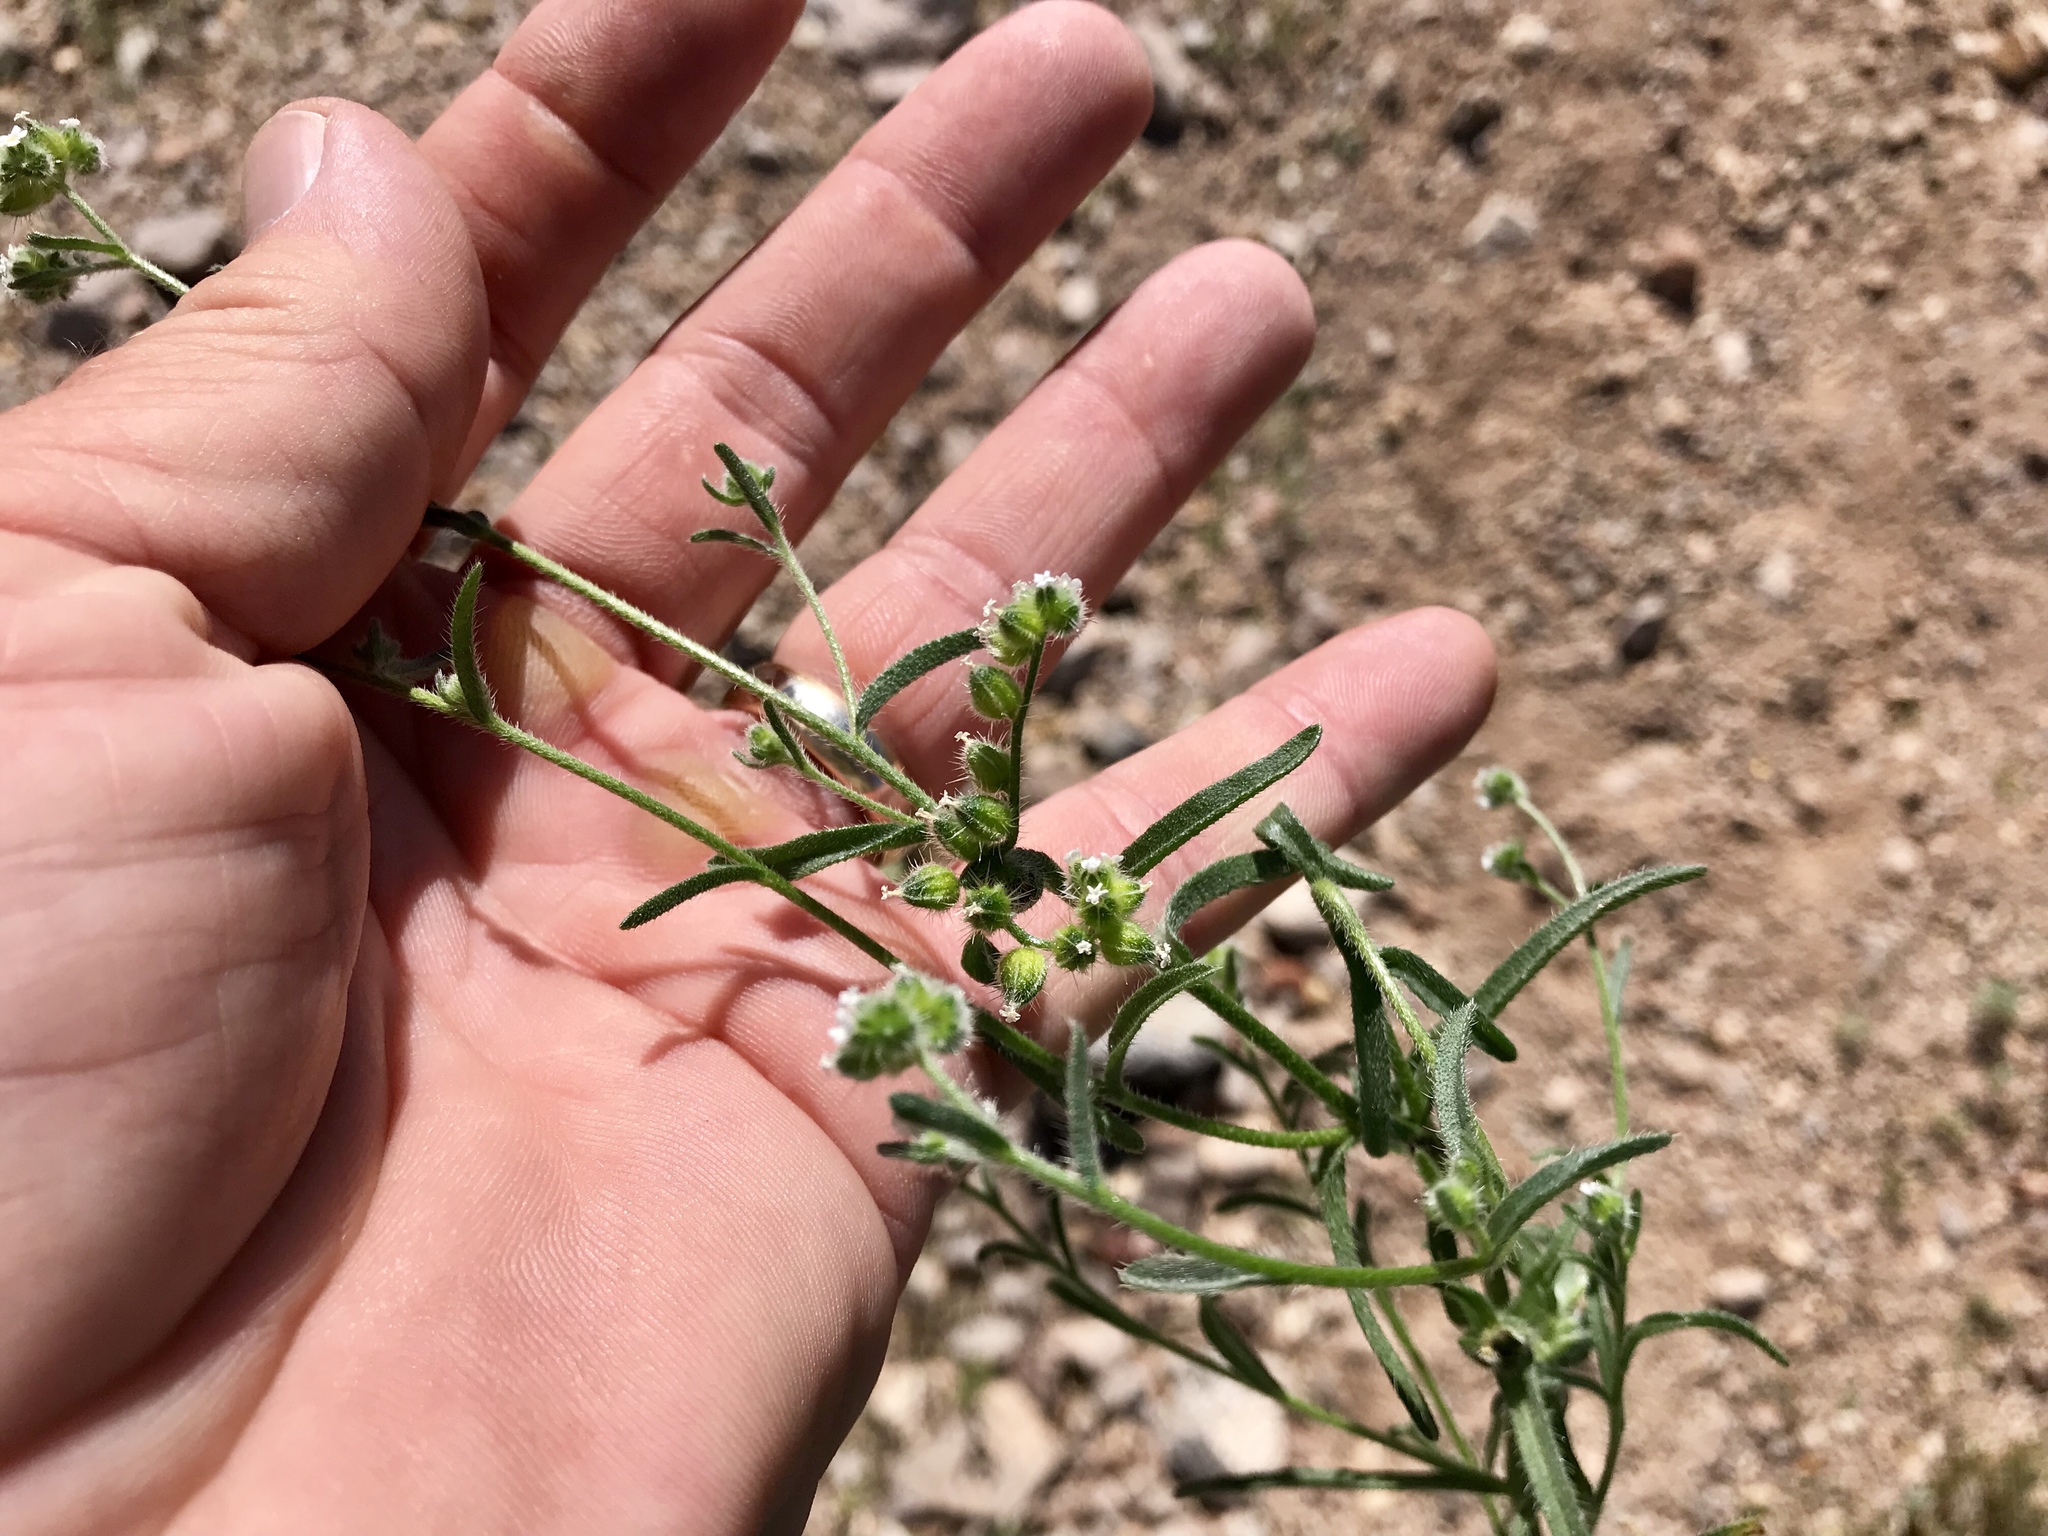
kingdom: Plantae
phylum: Tracheophyta
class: Magnoliopsida
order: Boraginales
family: Boraginaceae
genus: Cryptantha
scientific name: Cryptantha pterocarya
